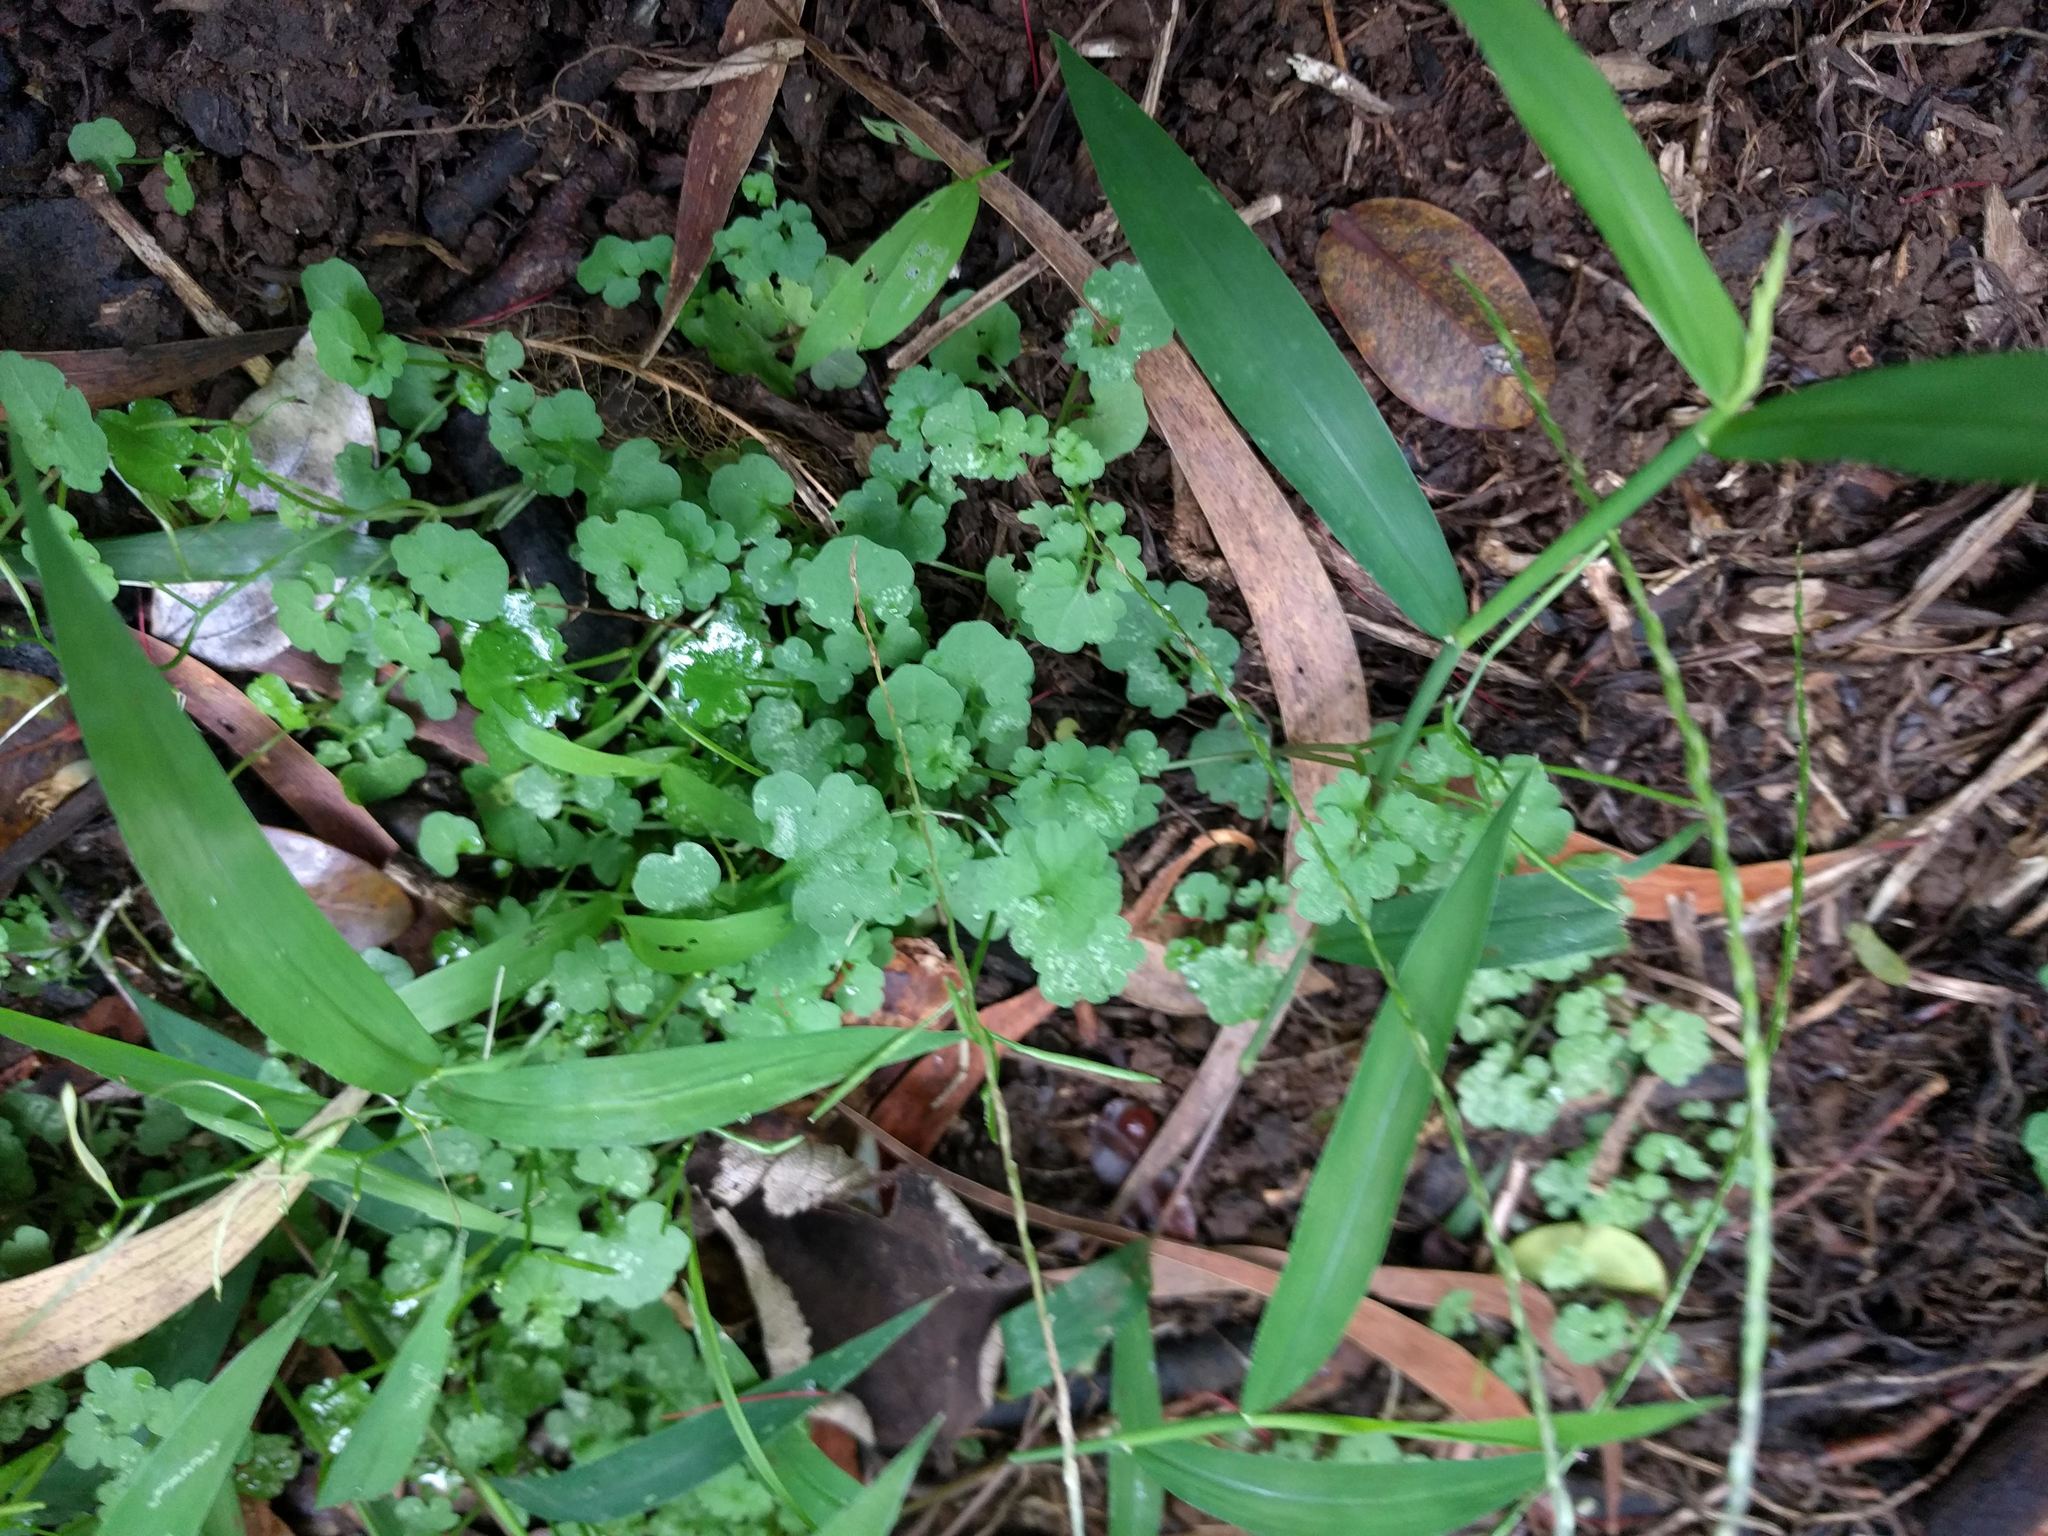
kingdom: Plantae
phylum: Tracheophyta
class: Magnoliopsida
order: Brassicales
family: Brassicaceae
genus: Cardamine
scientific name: Cardamine occulta
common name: Asian wavy bittercress
